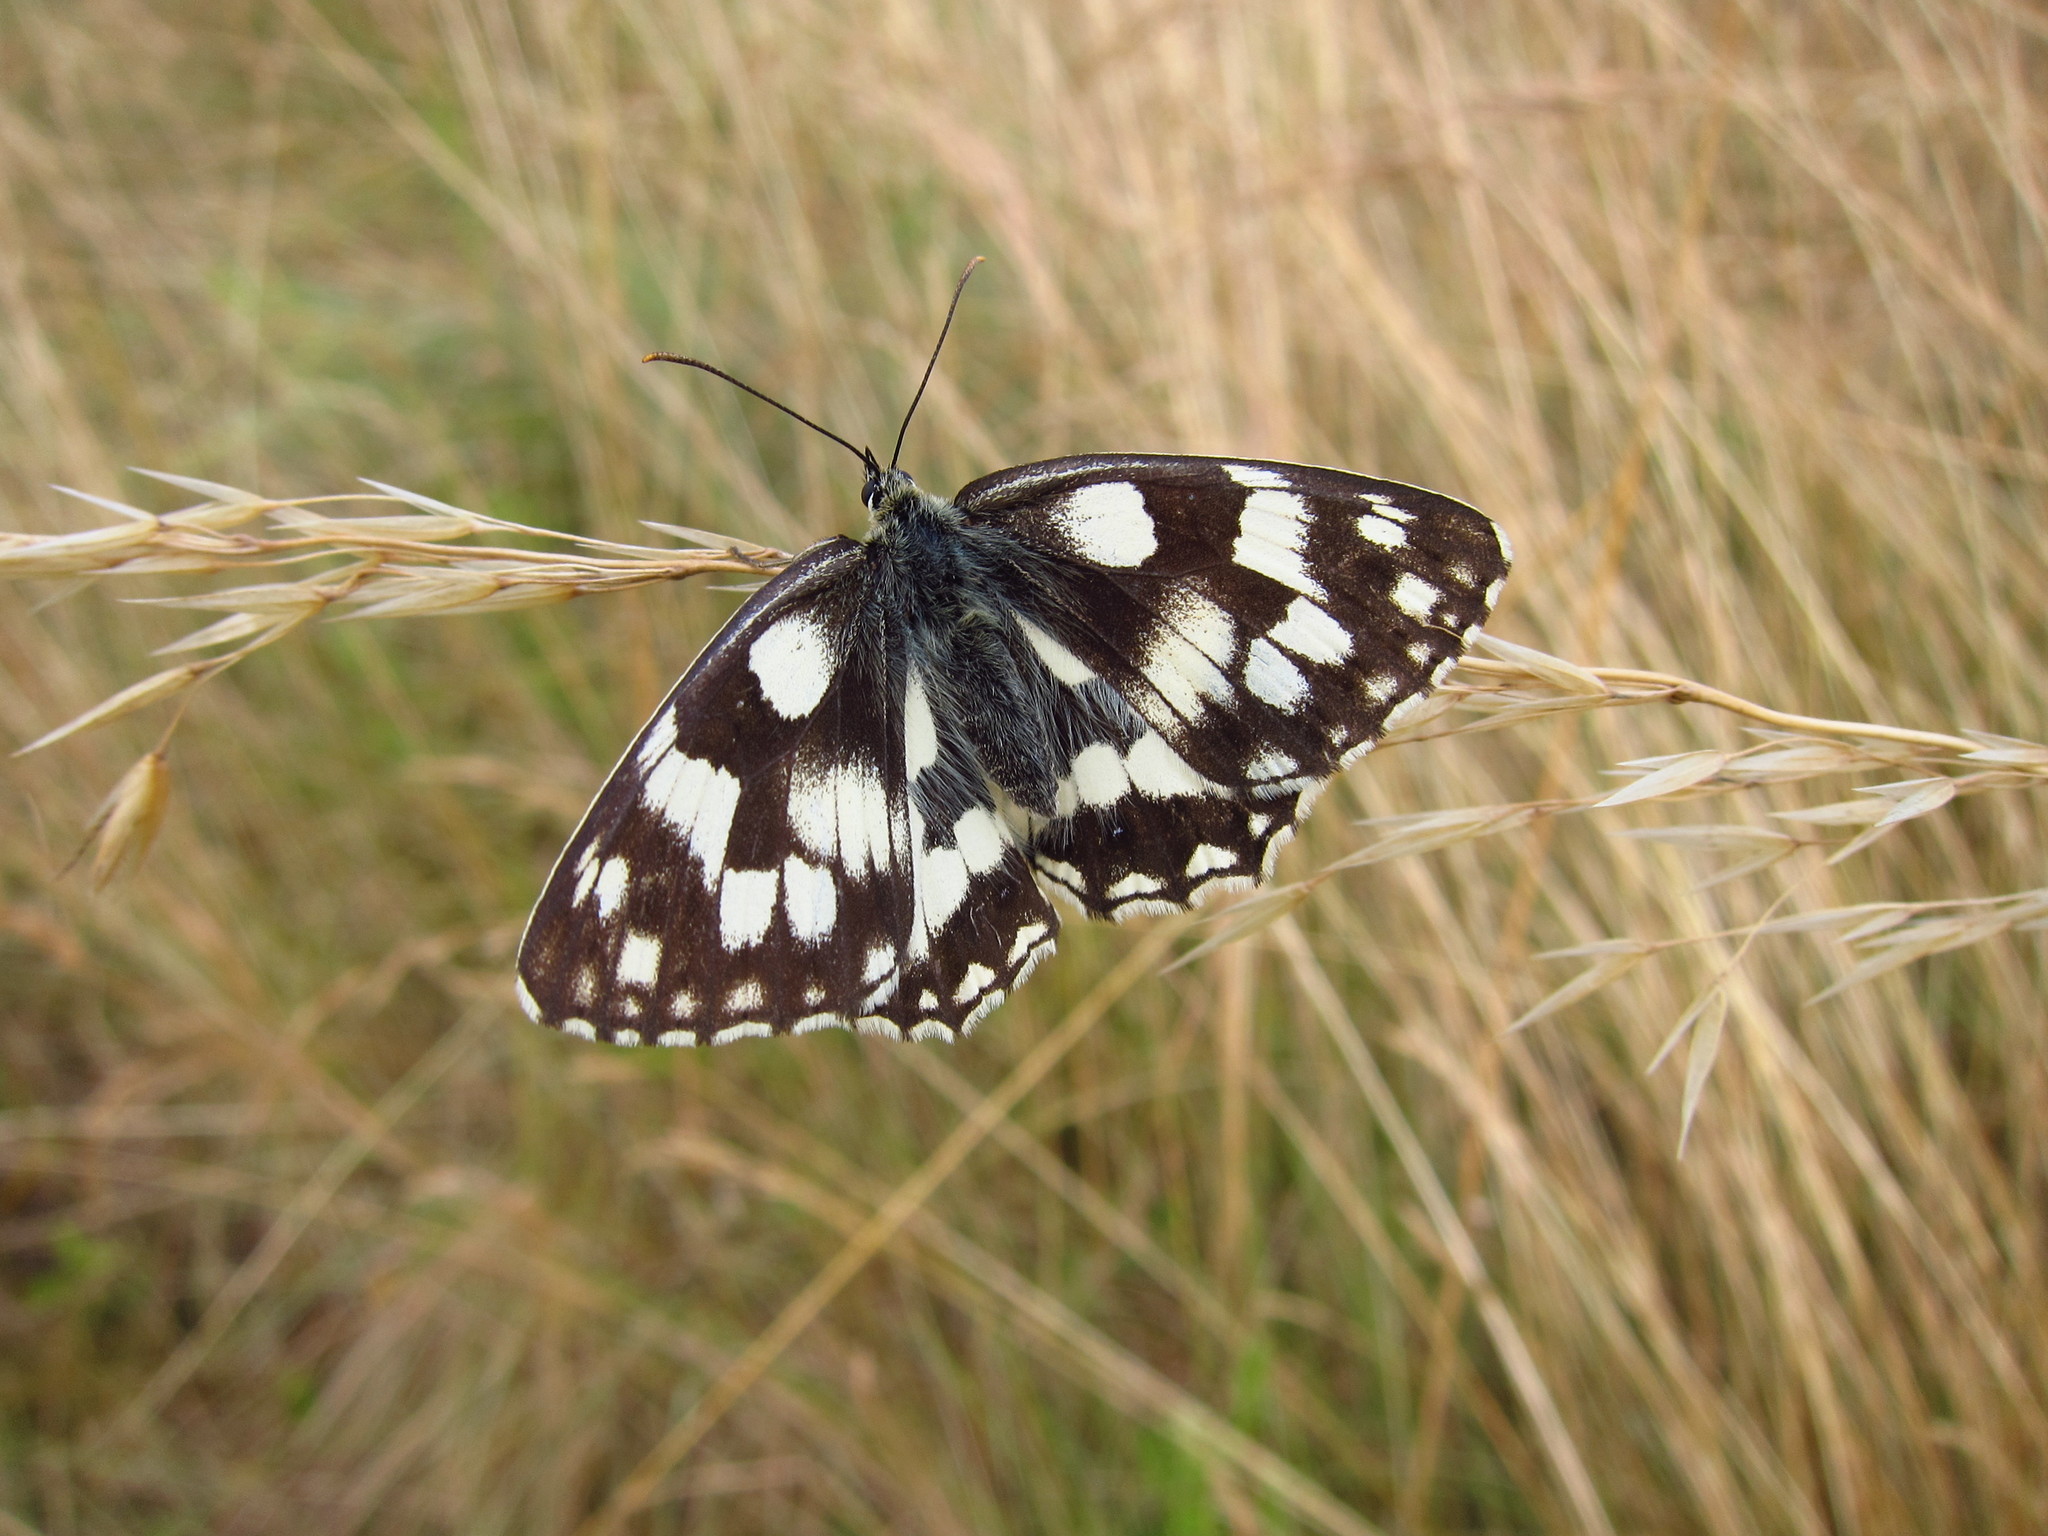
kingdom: Animalia
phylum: Arthropoda
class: Insecta
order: Lepidoptera
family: Nymphalidae
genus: Melanargia
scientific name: Melanargia galathea
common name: Marbled white
